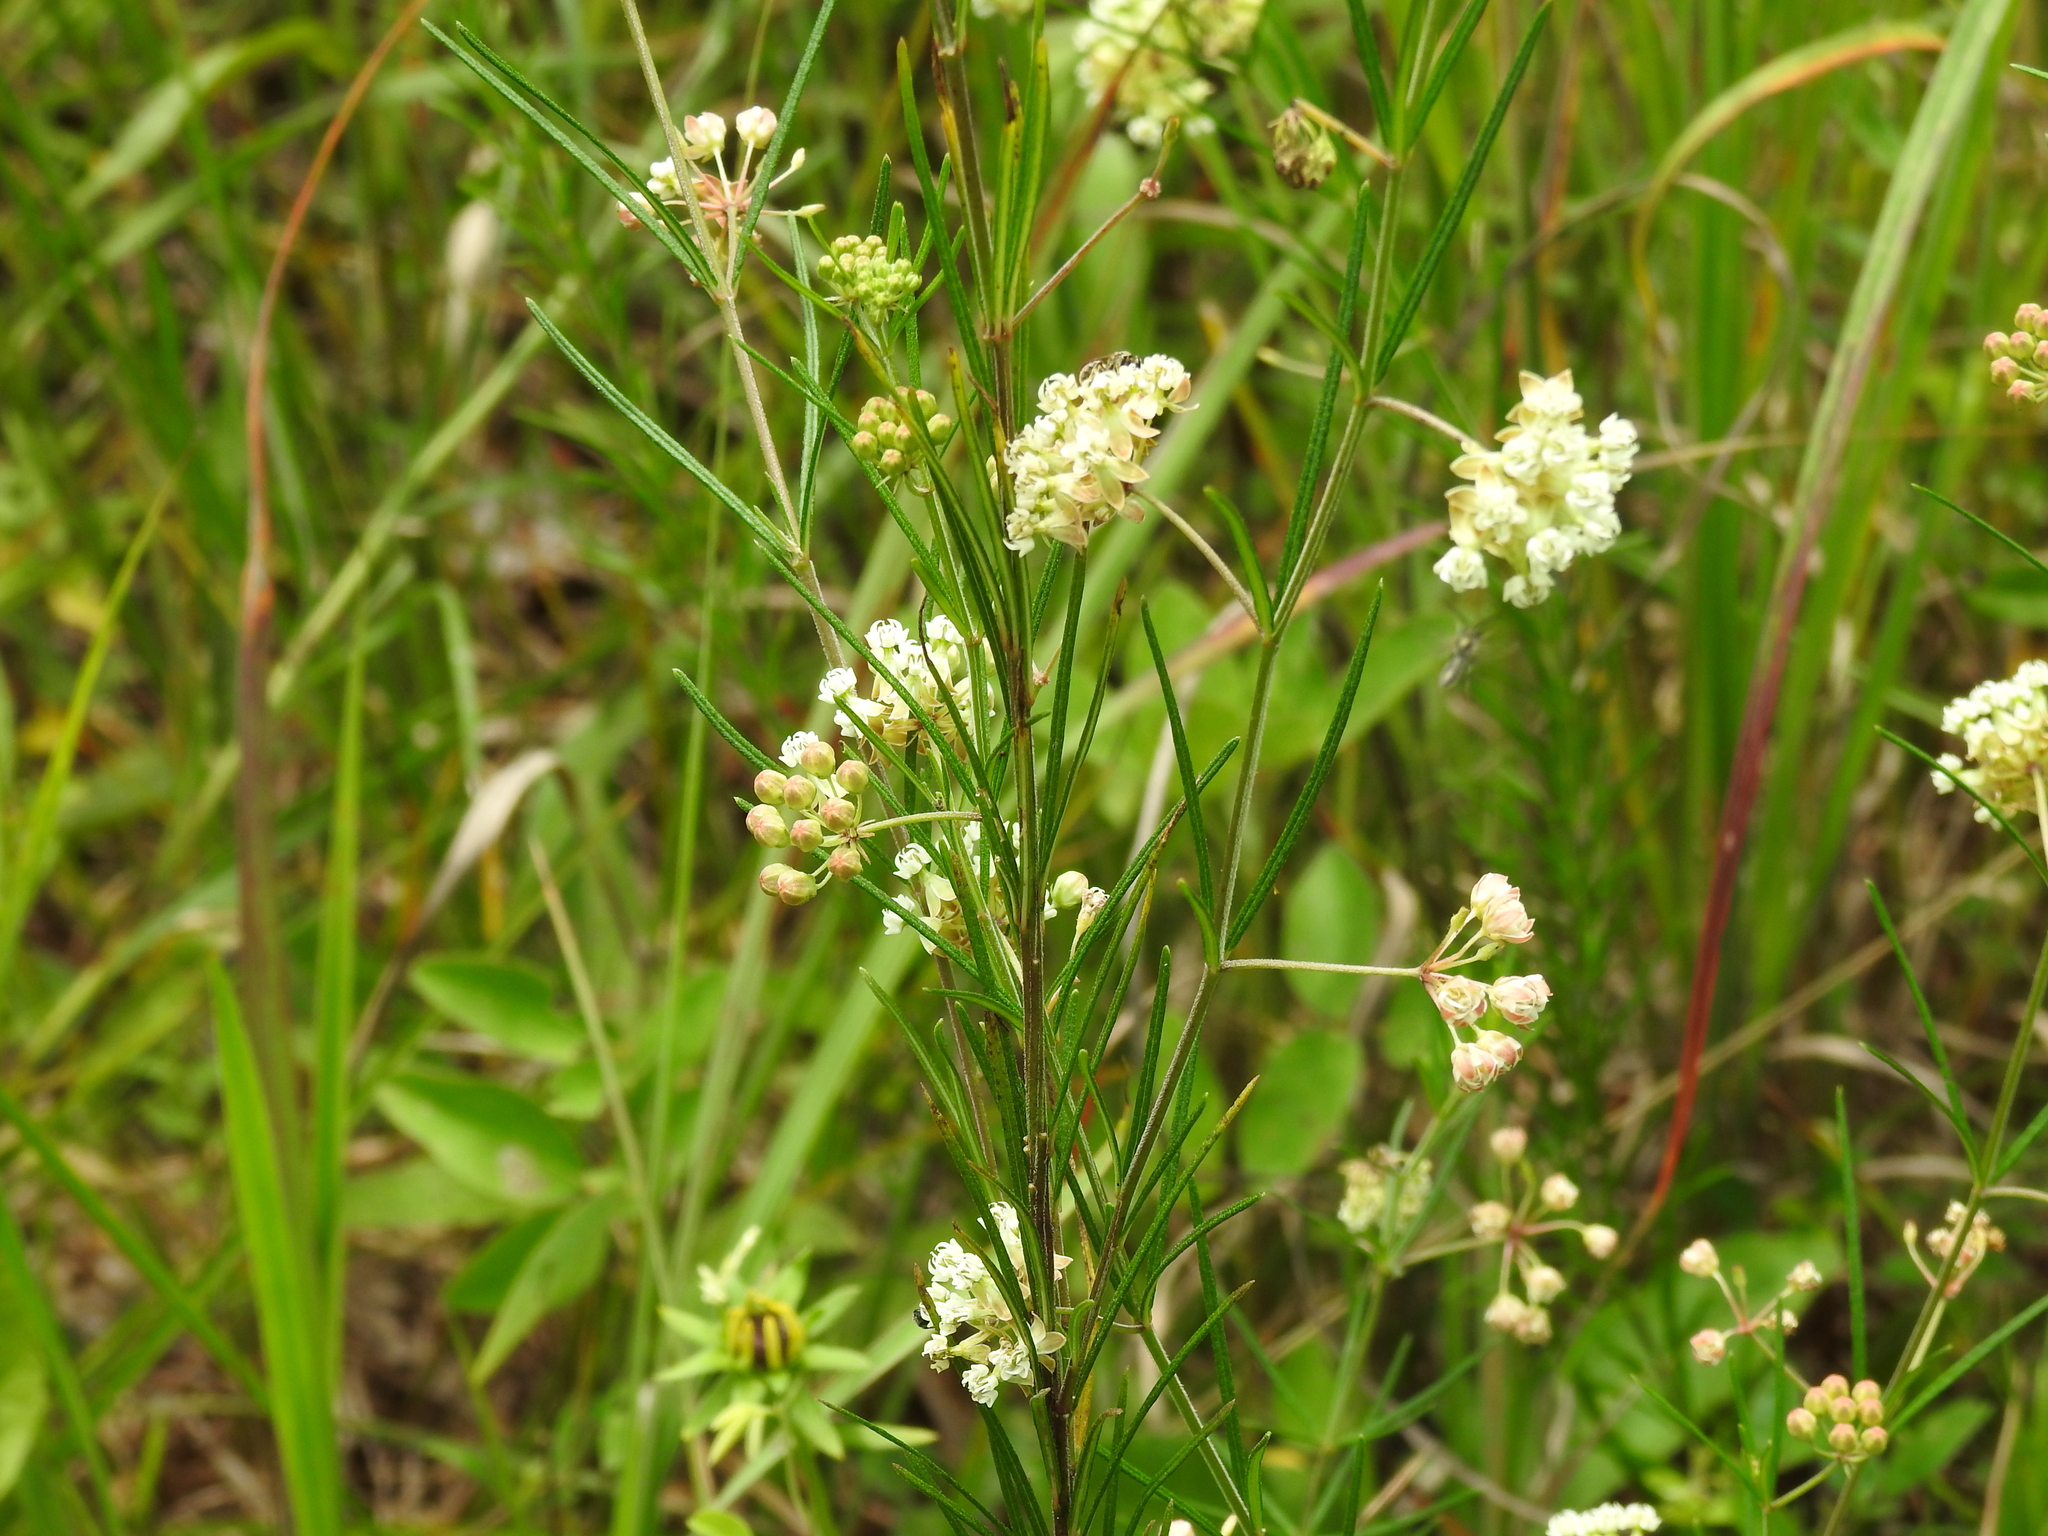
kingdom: Plantae
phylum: Tracheophyta
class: Magnoliopsida
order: Gentianales
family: Apocynaceae
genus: Asclepias
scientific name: Asclepias verticillata
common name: Eastern whorled milkweed
